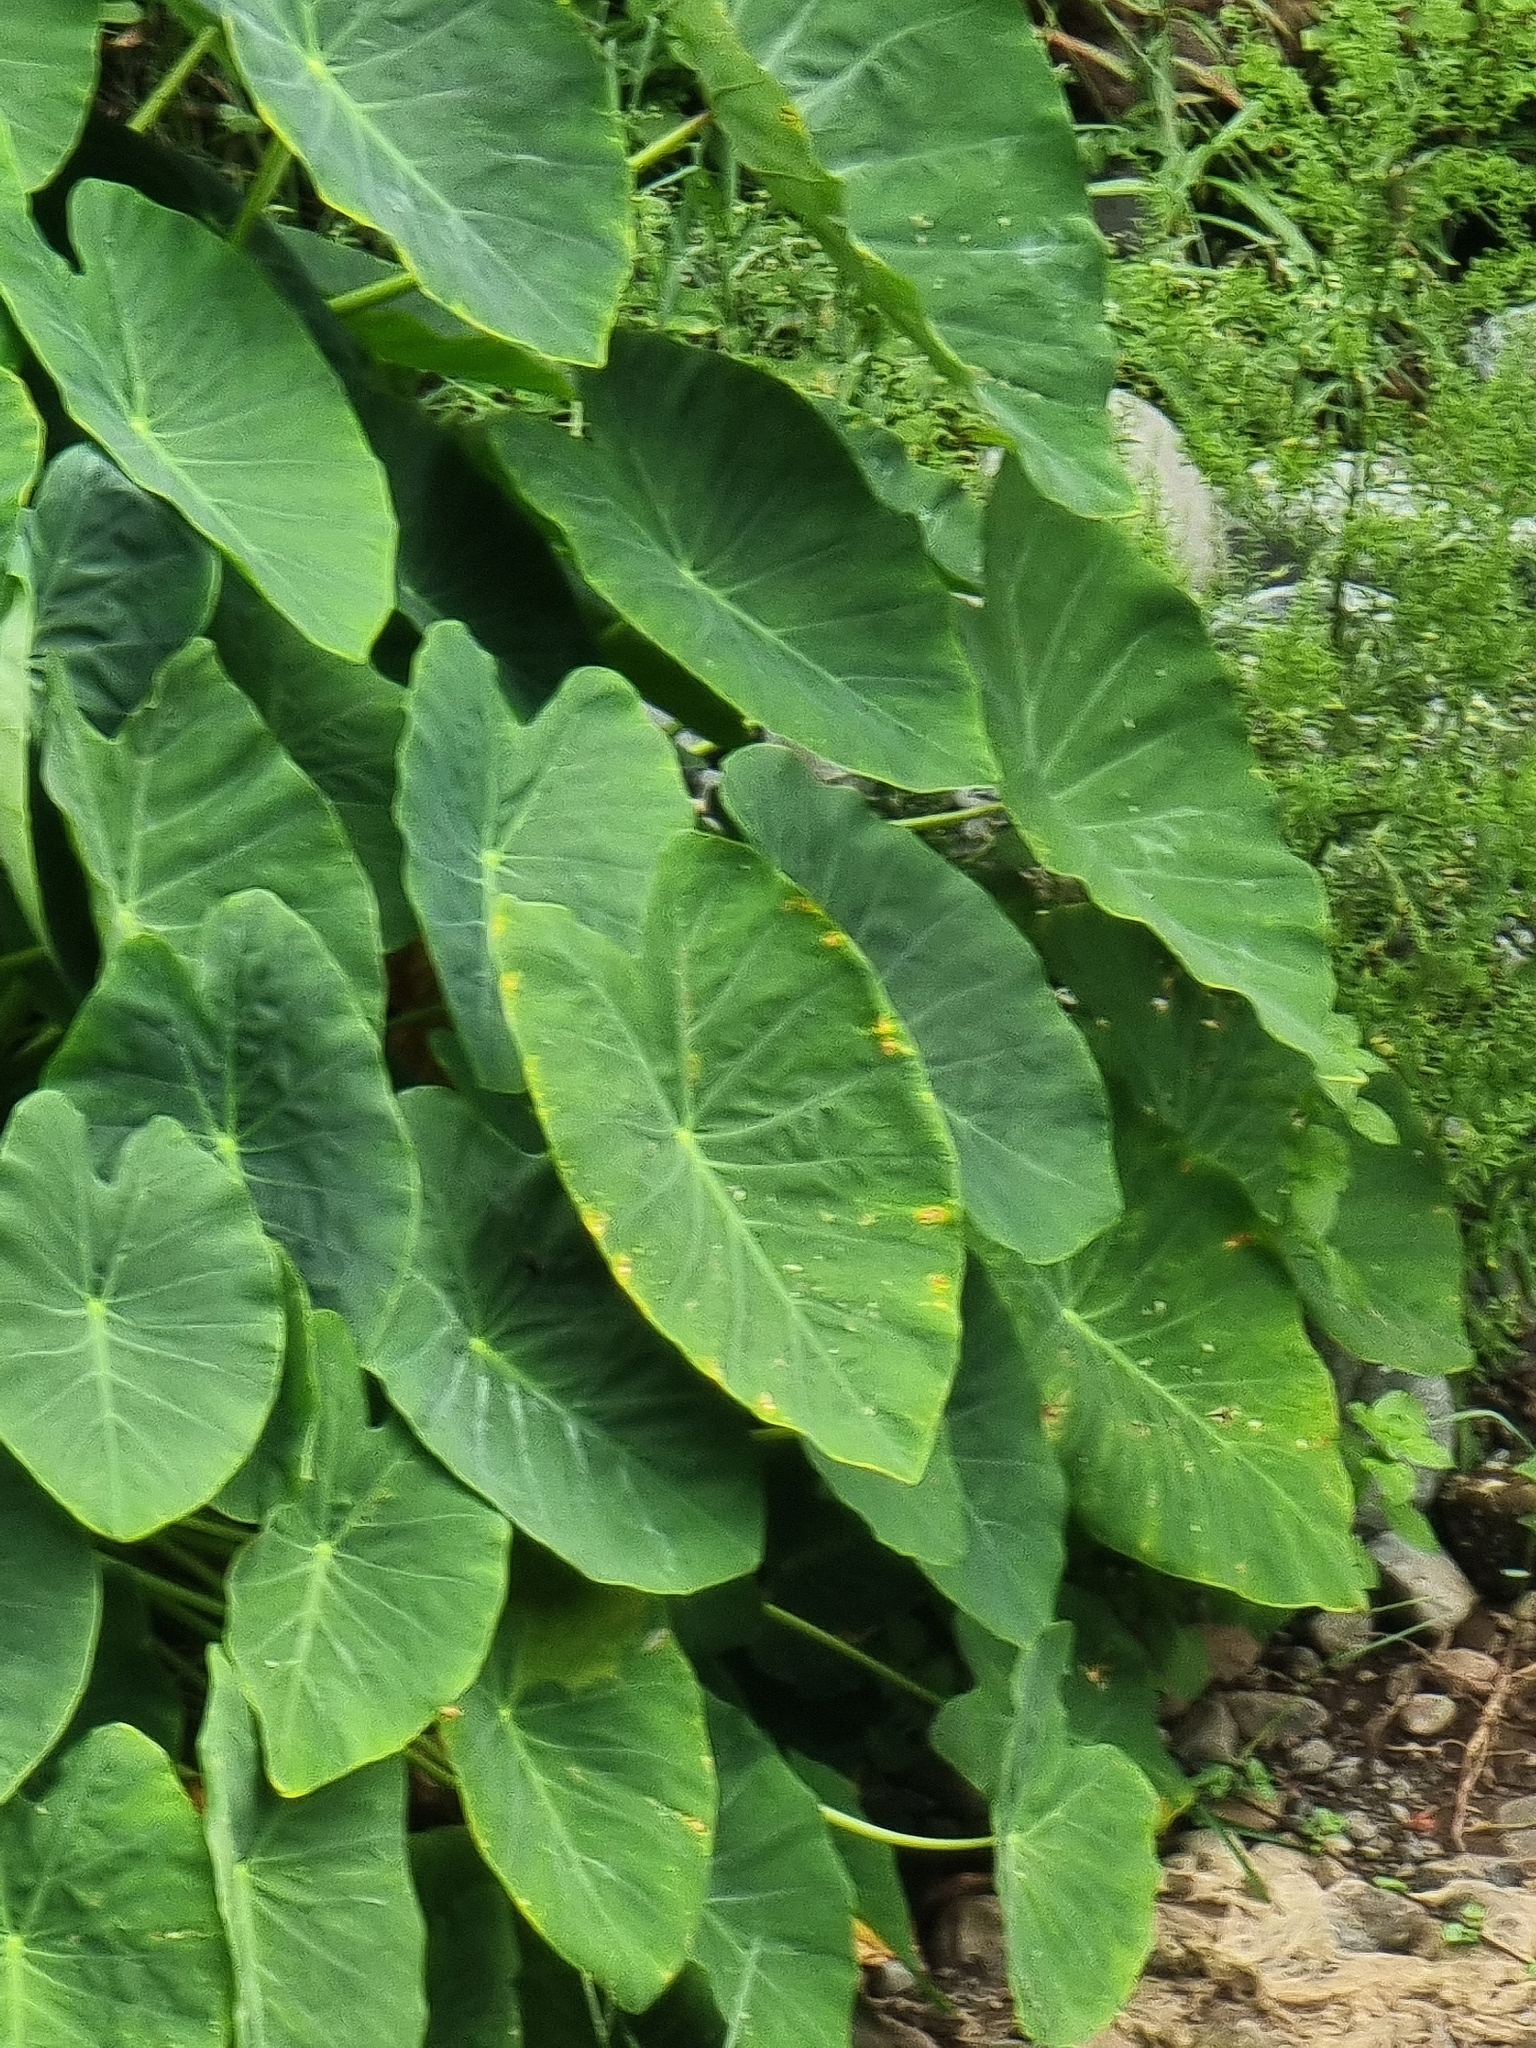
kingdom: Plantae
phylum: Tracheophyta
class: Liliopsida
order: Alismatales
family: Araceae
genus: Colocasia
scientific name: Colocasia esculenta
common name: Taro
